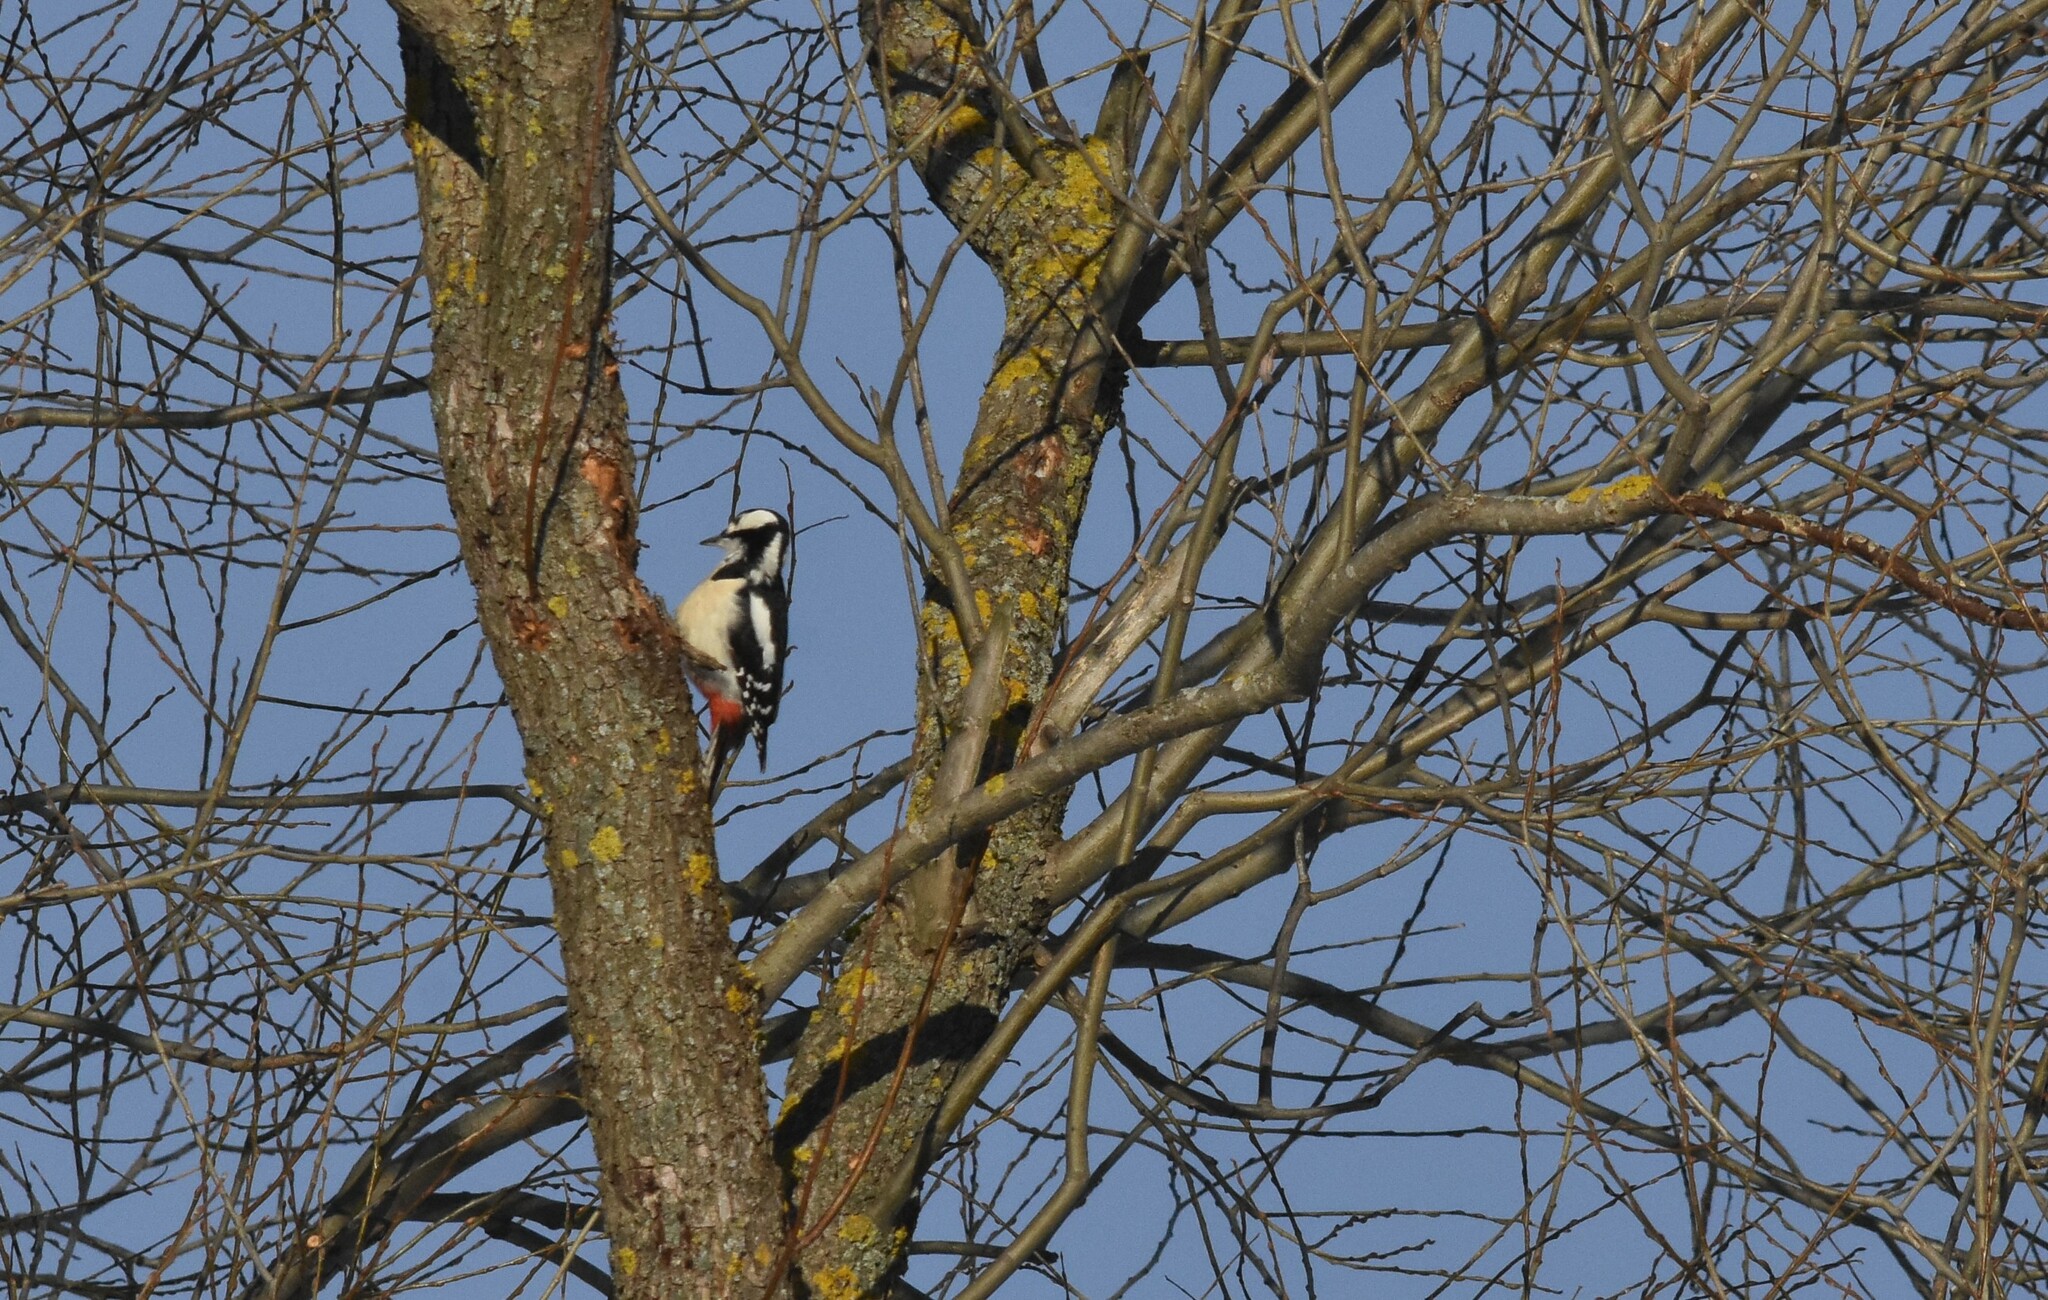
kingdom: Animalia
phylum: Chordata
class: Aves
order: Piciformes
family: Picidae
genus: Dendrocopos
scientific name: Dendrocopos major
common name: Great spotted woodpecker
